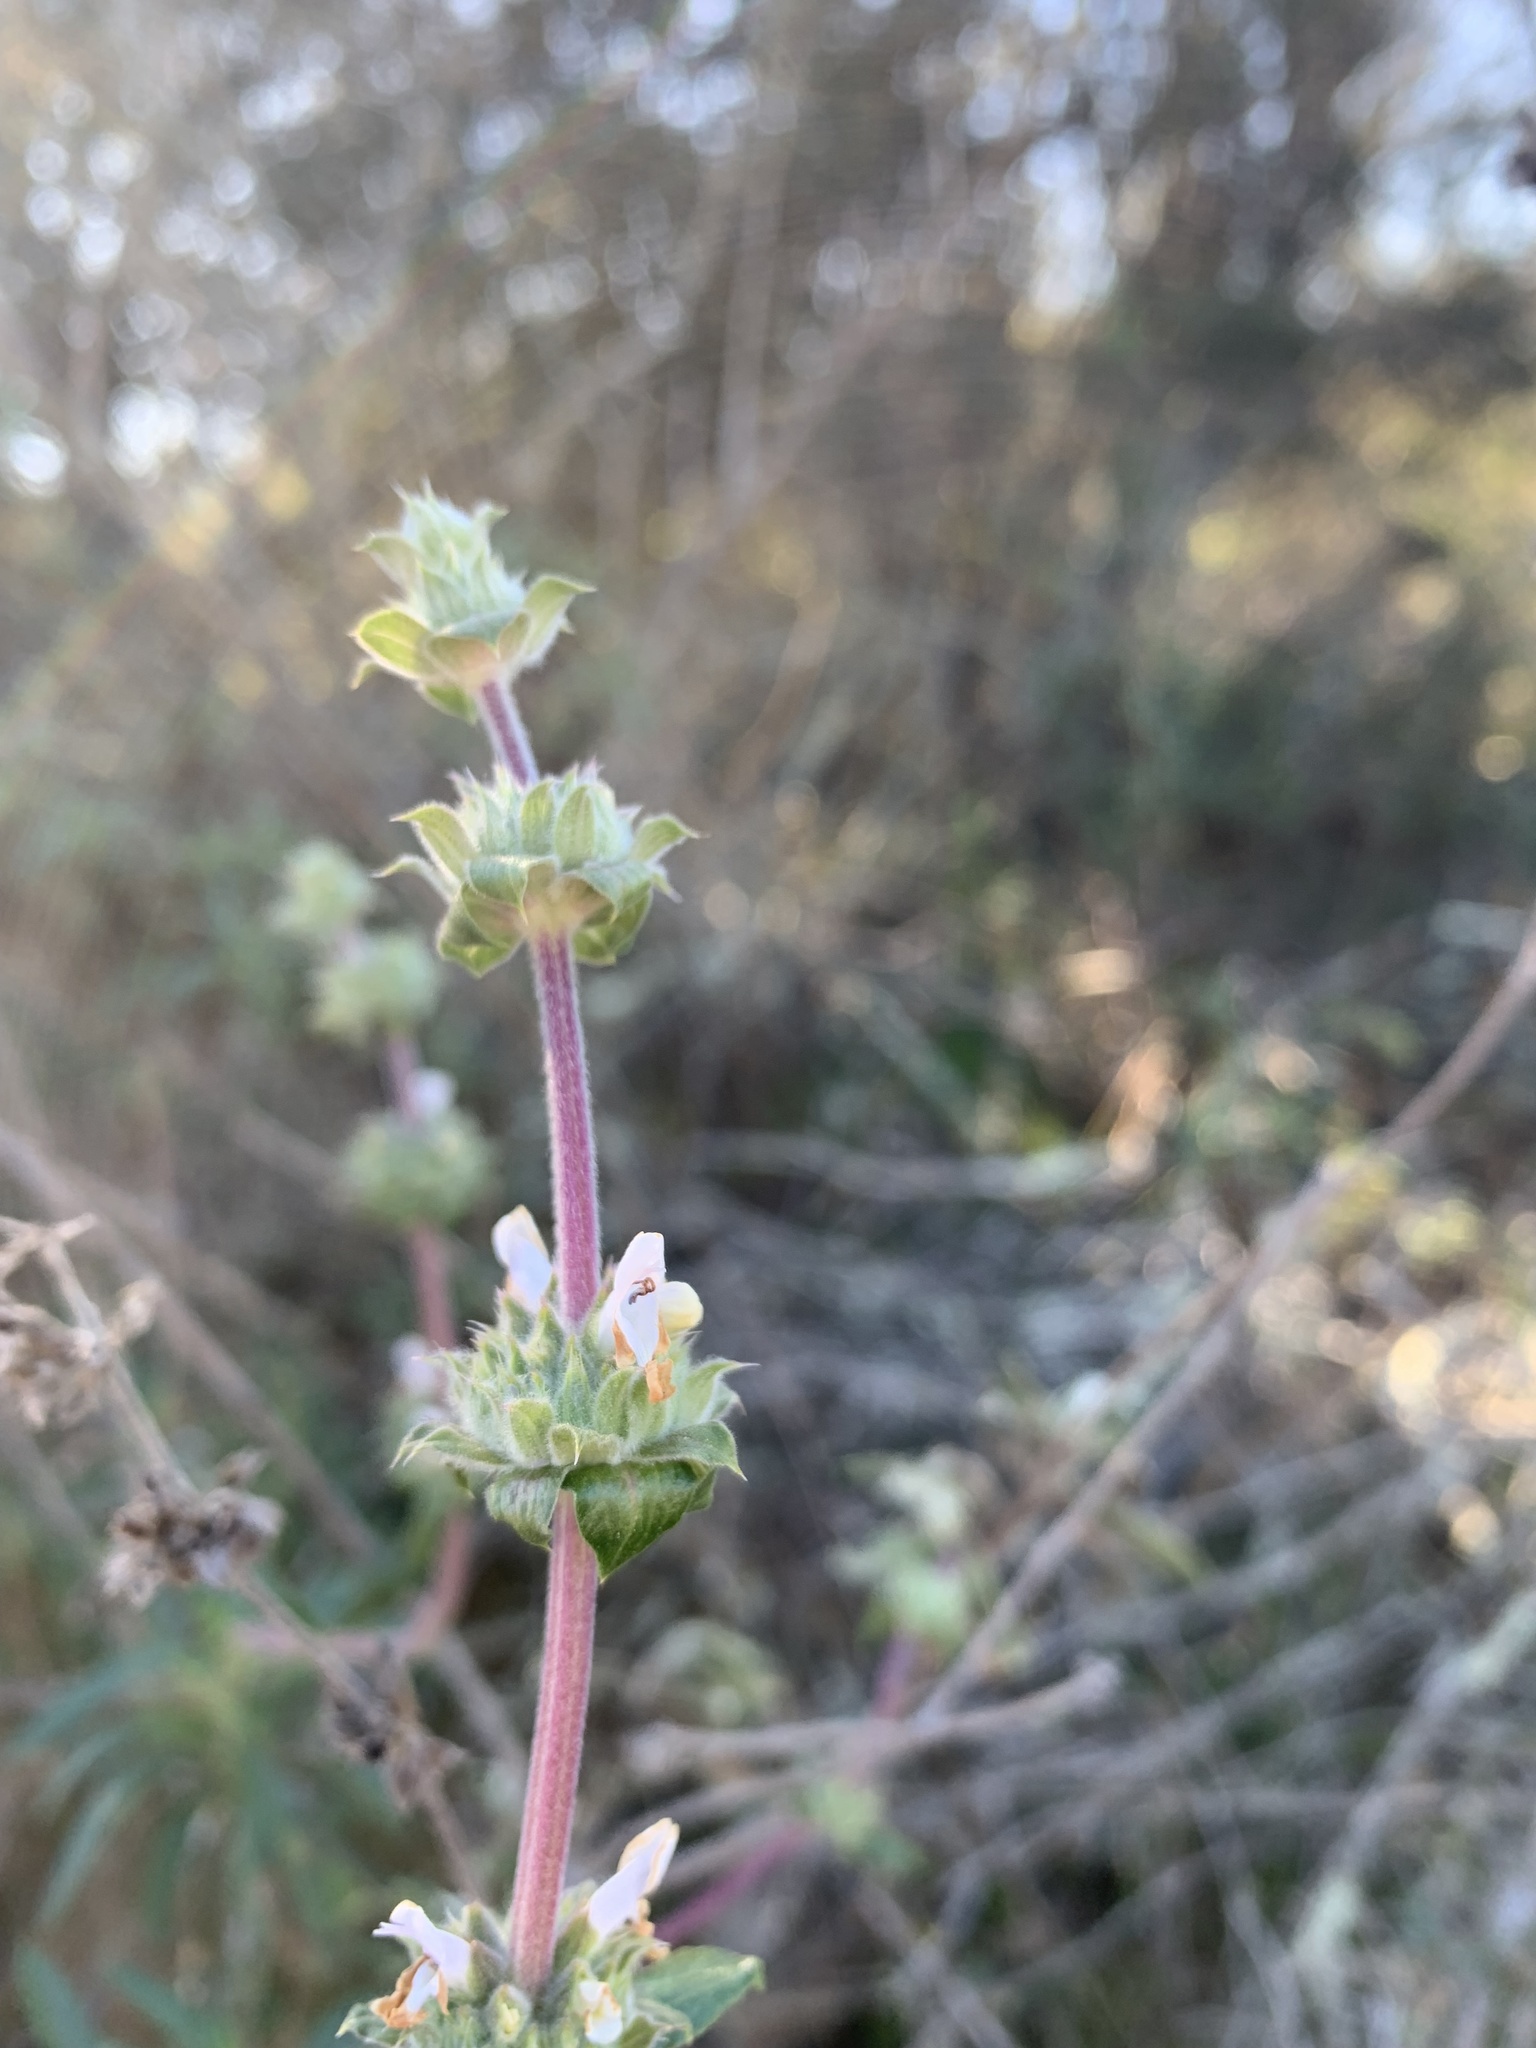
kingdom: Plantae
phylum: Tracheophyta
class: Magnoliopsida
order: Lamiales
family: Lamiaceae
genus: Salvia
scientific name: Salvia mellifera
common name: Black sage
